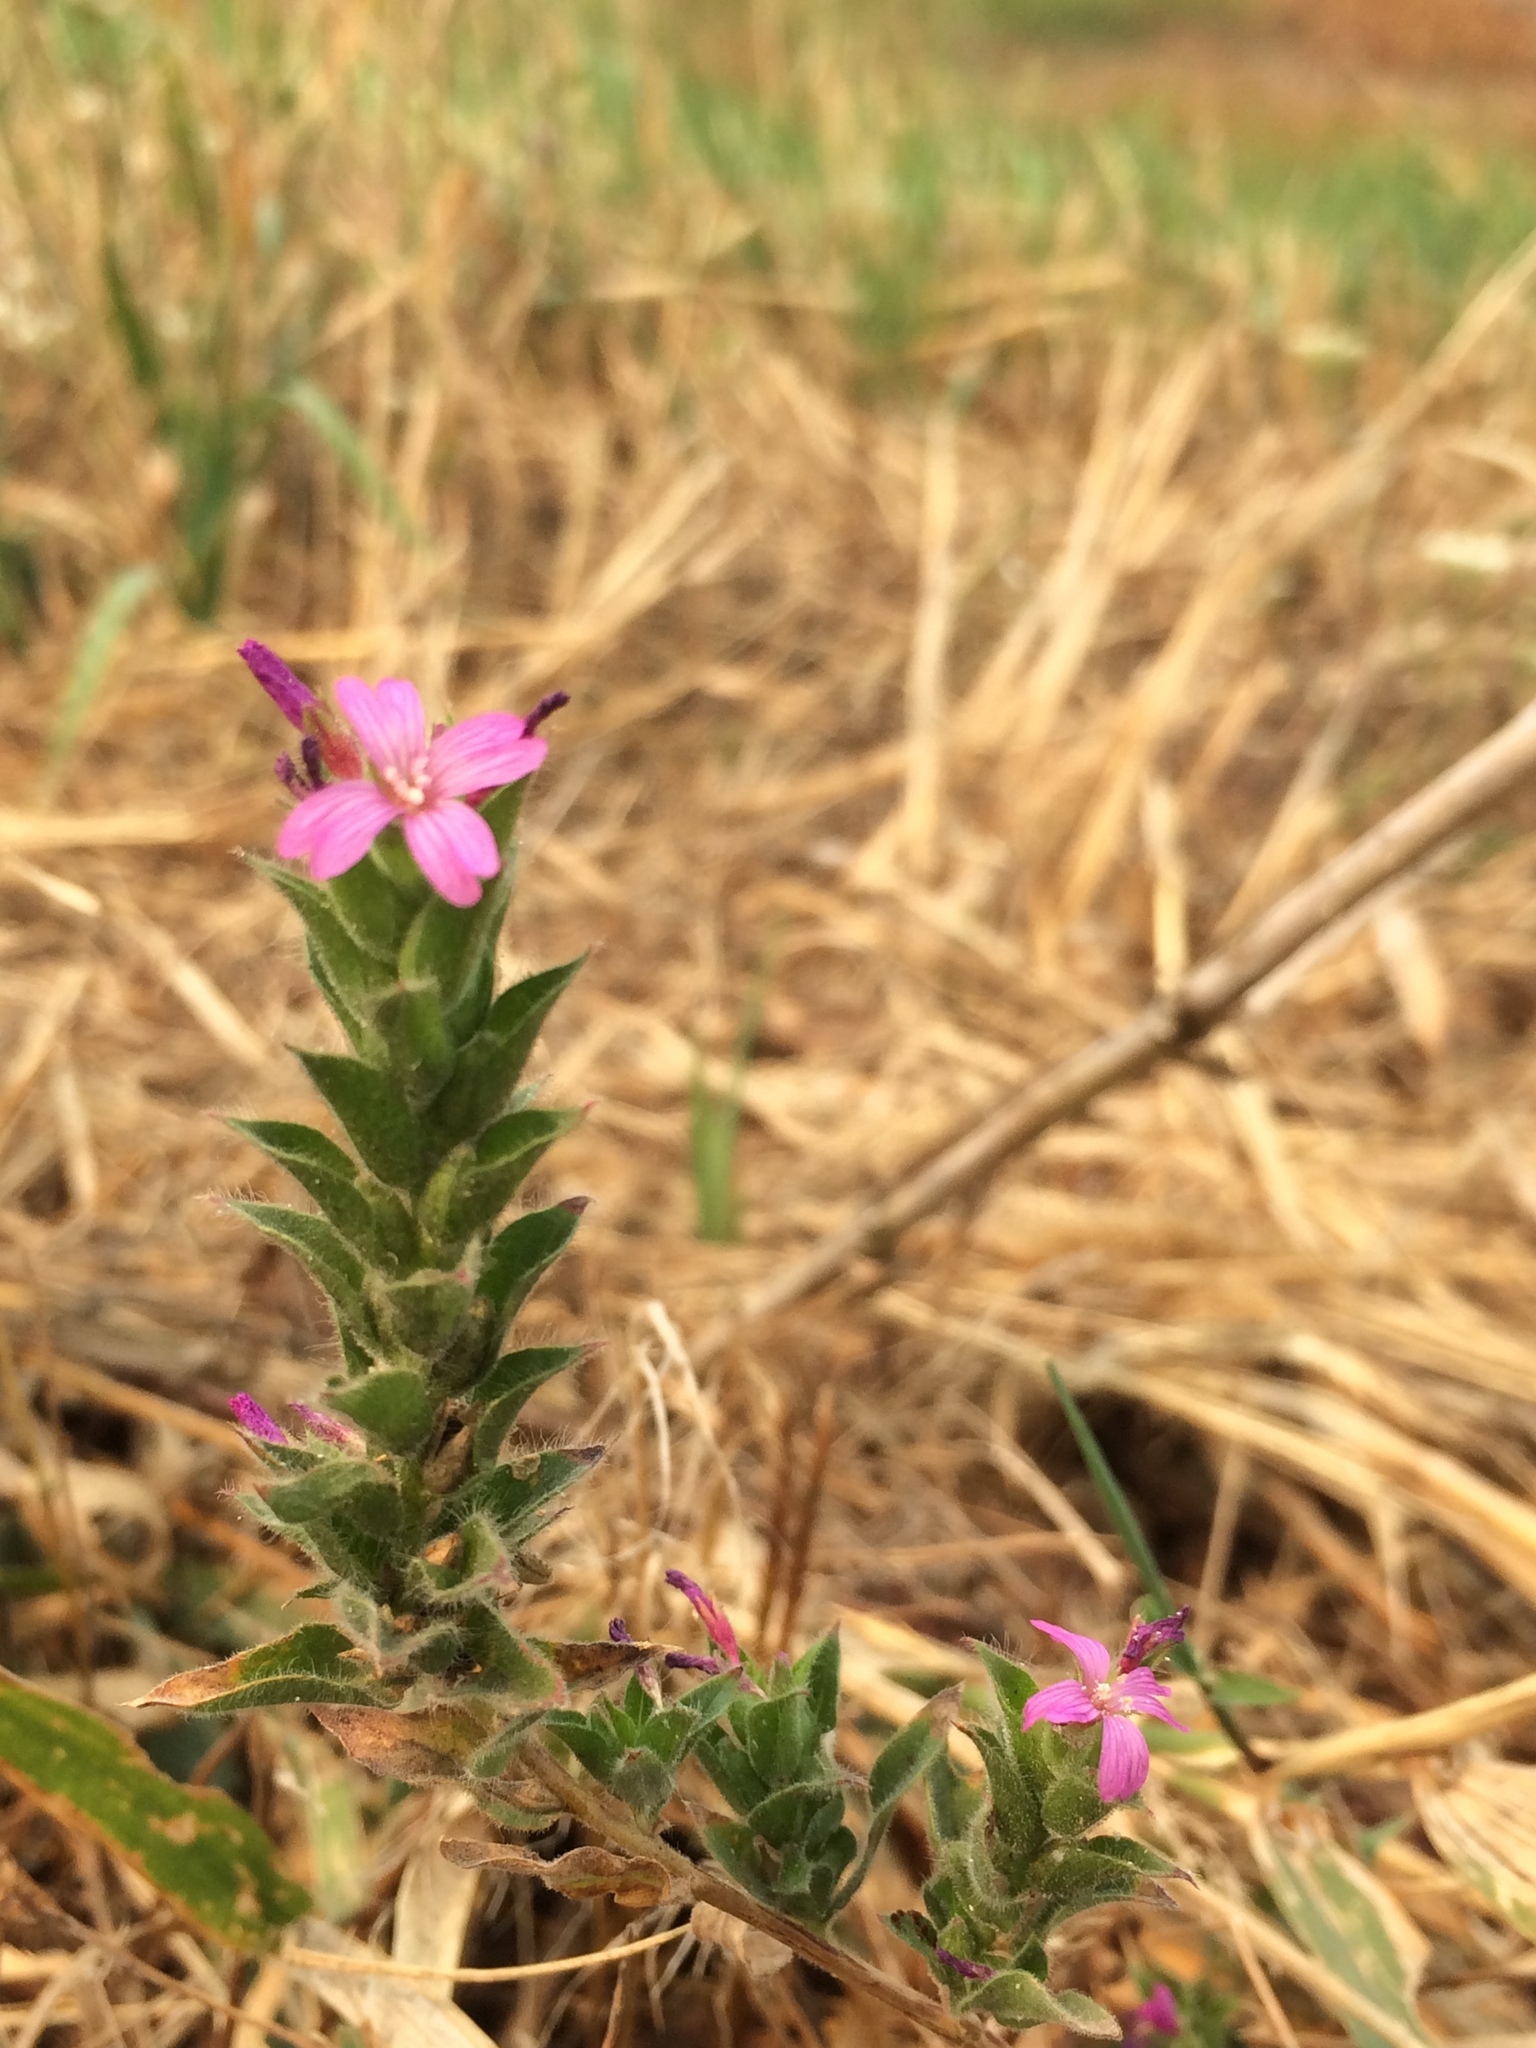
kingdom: Plantae
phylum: Tracheophyta
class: Magnoliopsida
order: Myrtales
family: Onagraceae
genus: Epilobium
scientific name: Epilobium densiflorum
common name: Dense spike-primrose
